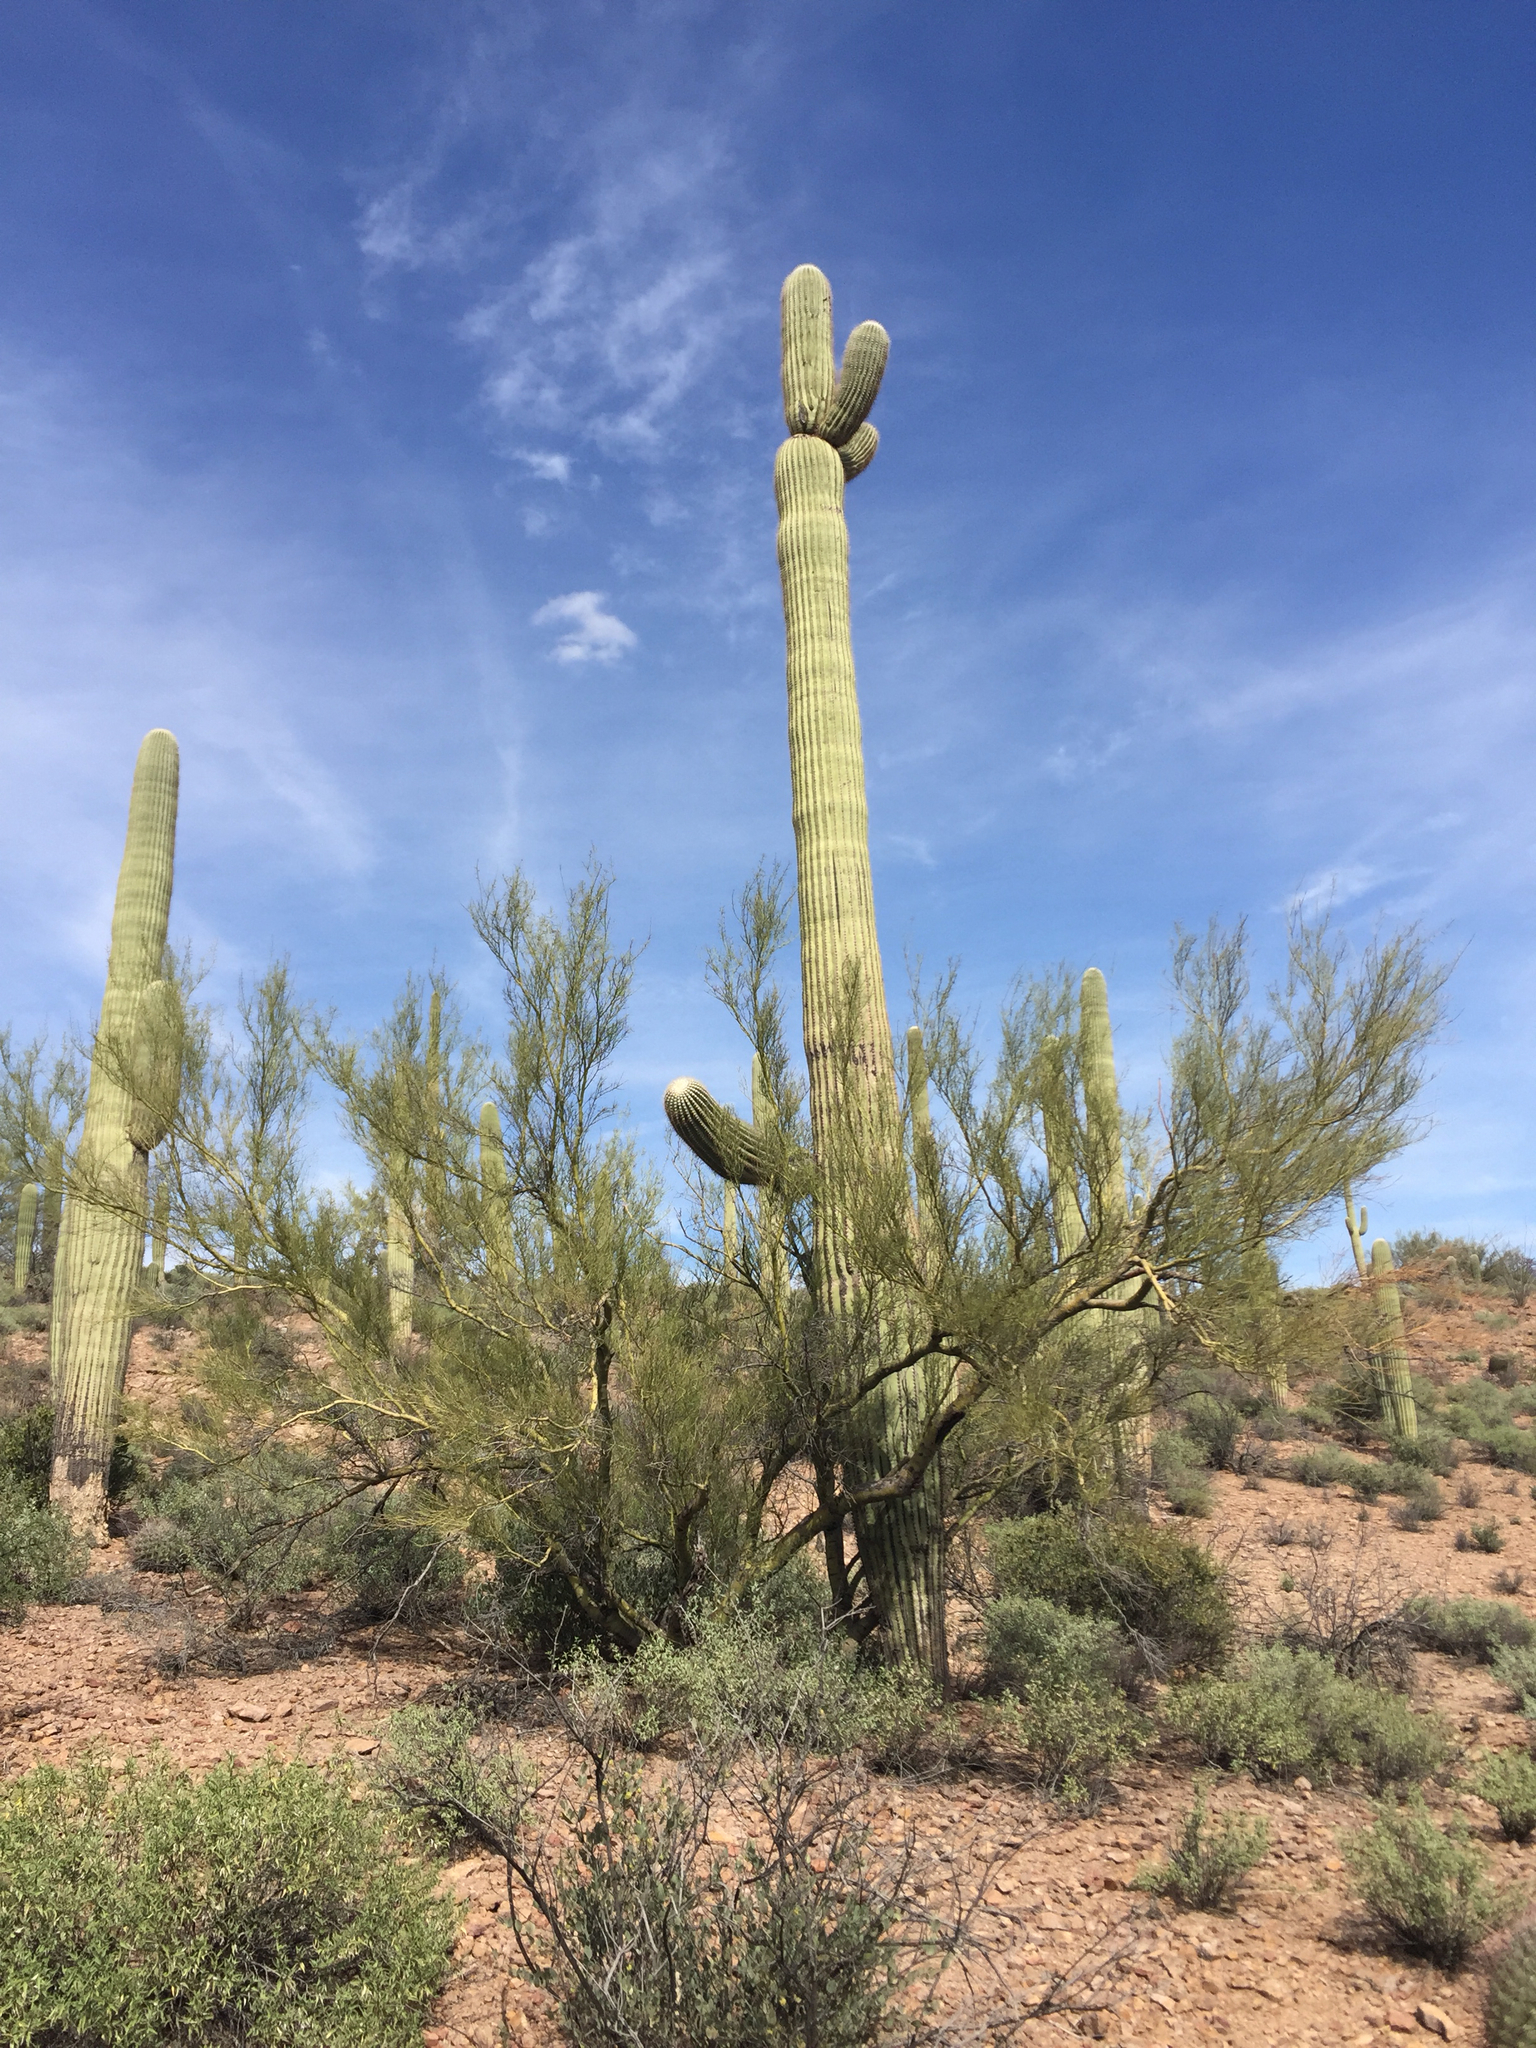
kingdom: Plantae
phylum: Tracheophyta
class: Magnoliopsida
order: Caryophyllales
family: Cactaceae
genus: Carnegiea
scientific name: Carnegiea gigantea
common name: Saguaro
